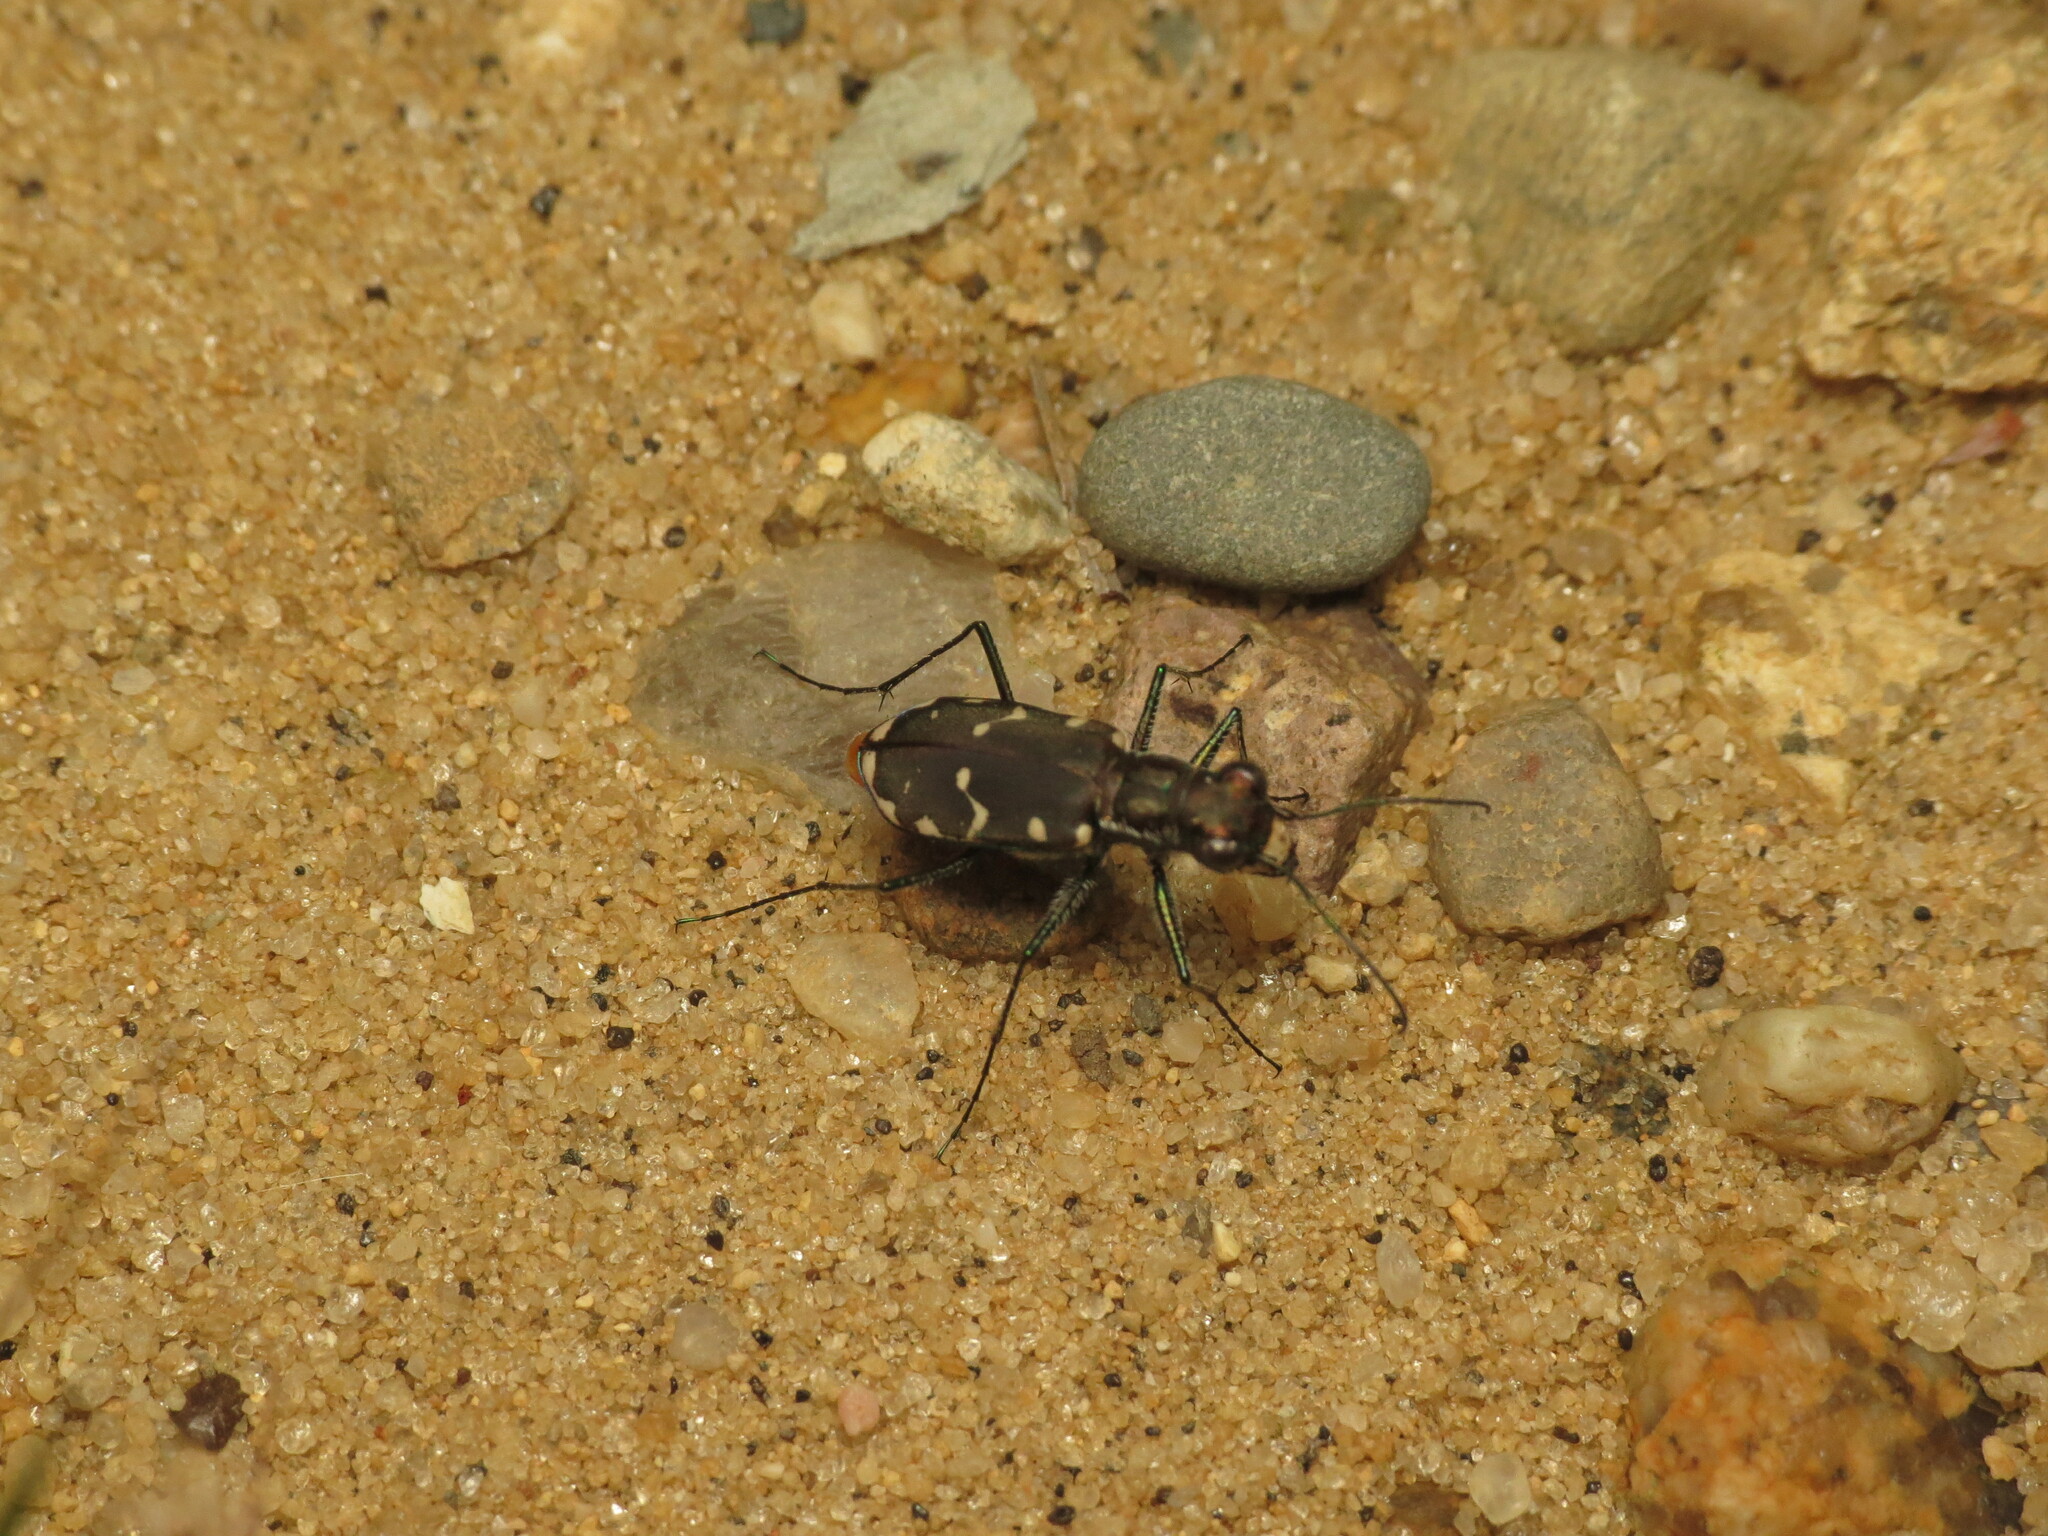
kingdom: Animalia
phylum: Arthropoda
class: Insecta
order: Coleoptera
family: Carabidae
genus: Cicindela
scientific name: Cicindela rufiventris
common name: Eastern red-bellied tiger beetle
